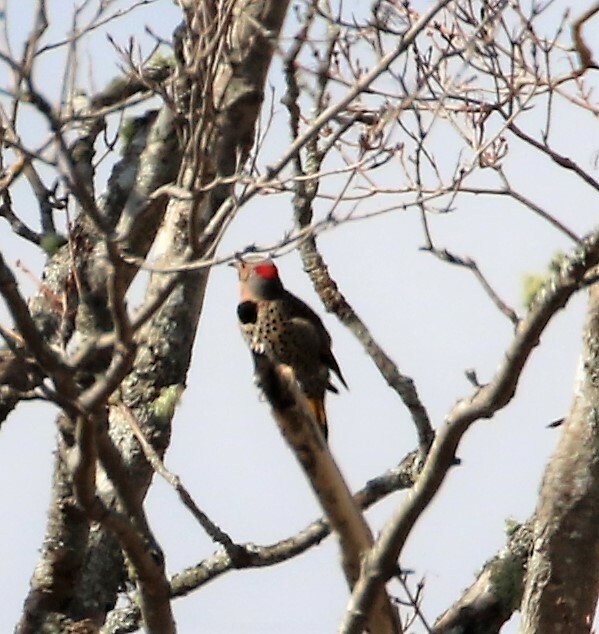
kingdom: Animalia
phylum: Chordata
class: Aves
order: Piciformes
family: Picidae
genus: Colaptes
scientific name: Colaptes auratus
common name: Northern flicker
